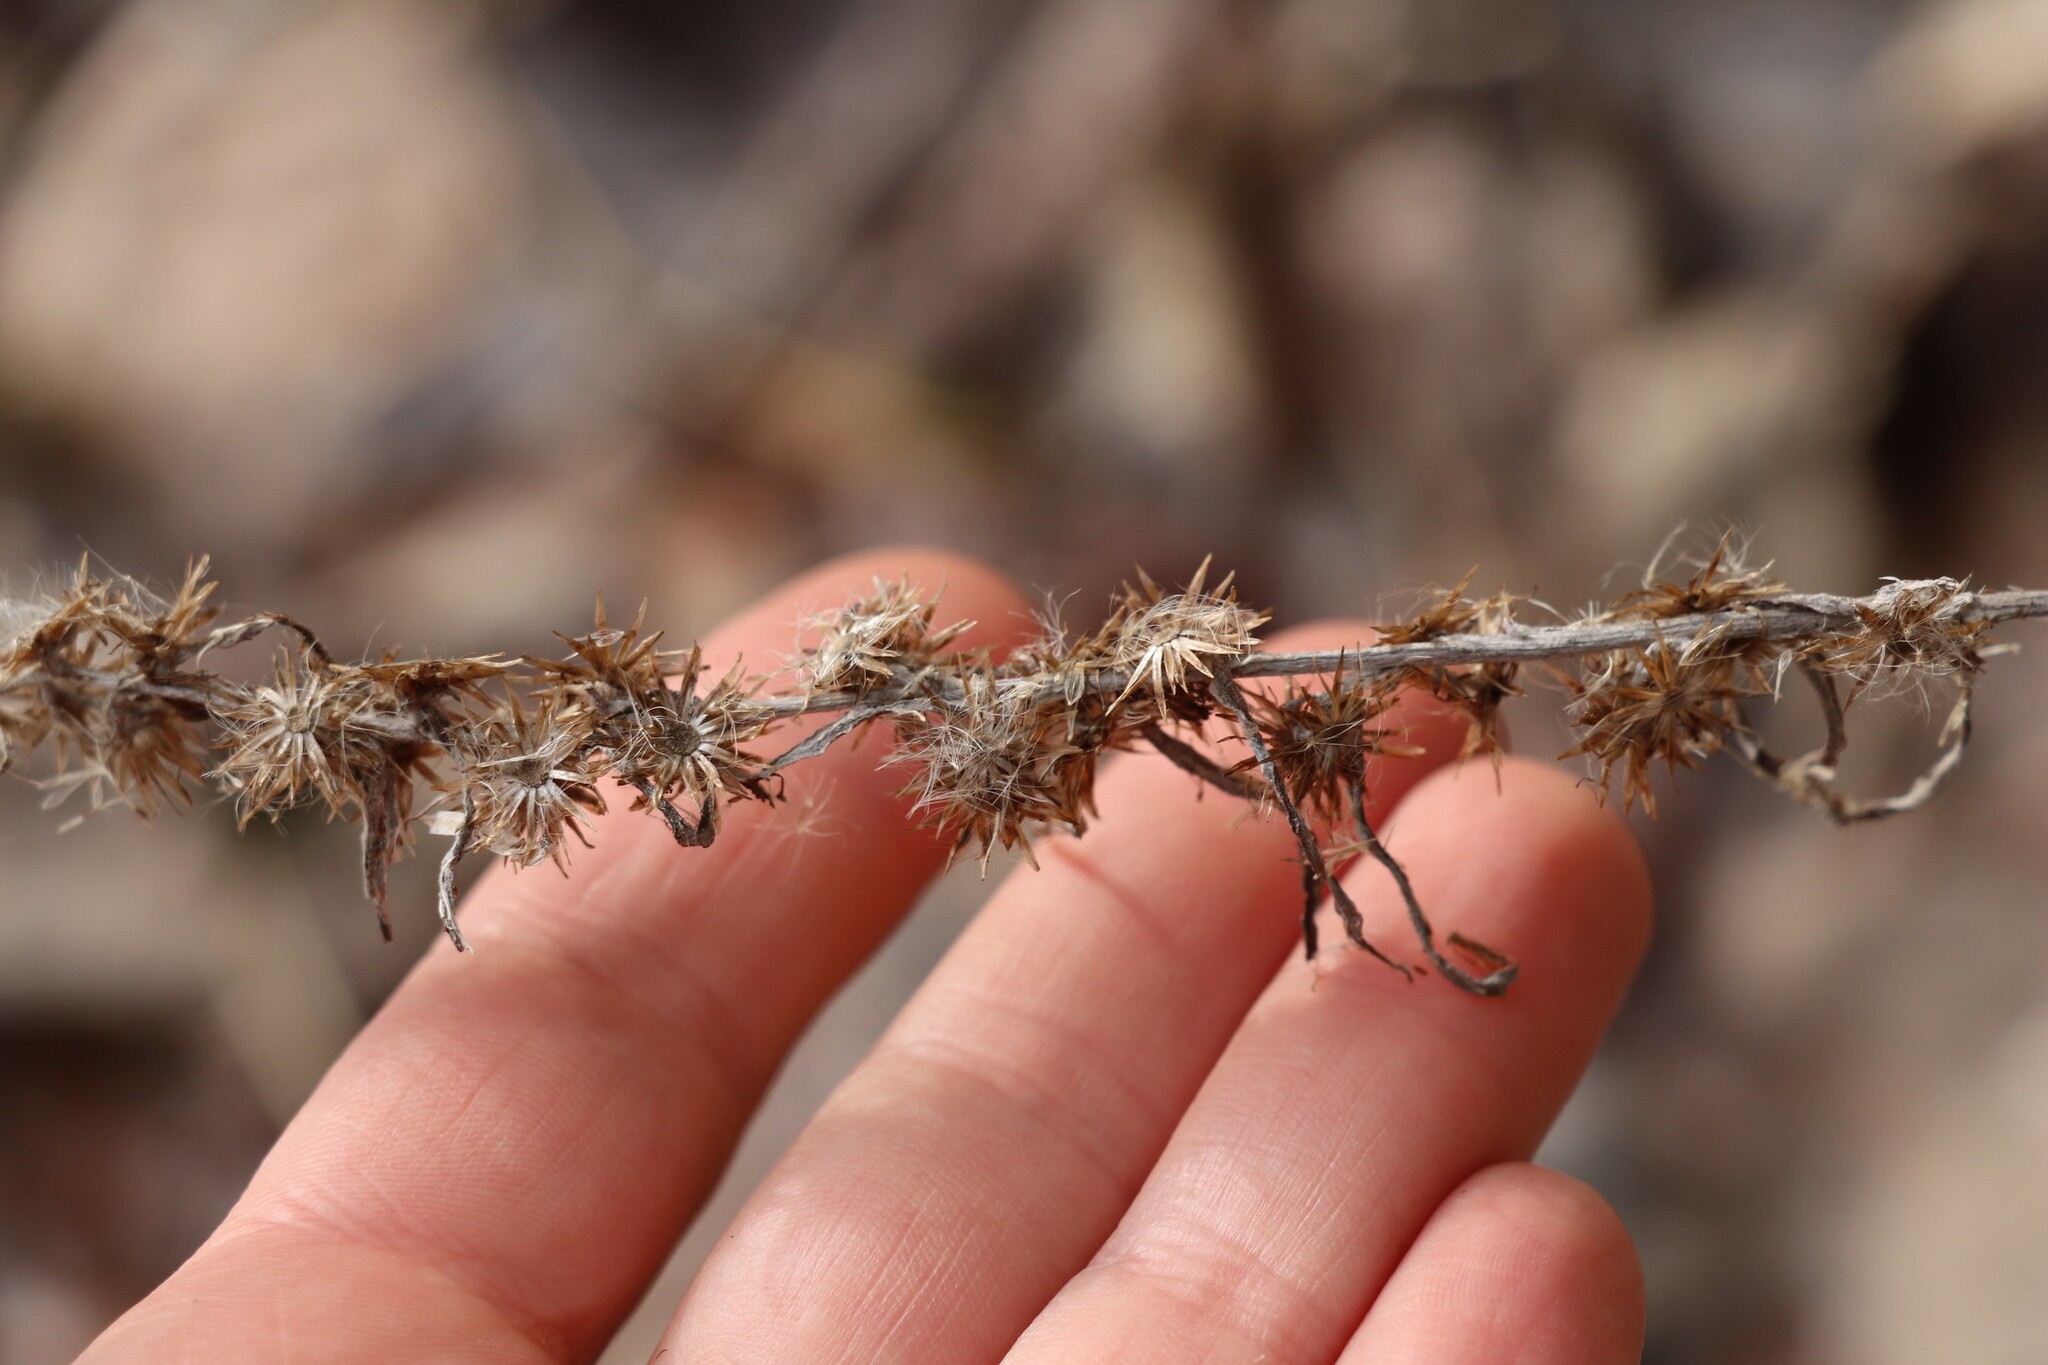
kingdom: Plantae
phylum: Tracheophyta
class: Magnoliopsida
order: Asterales
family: Asteraceae
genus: Omalotheca
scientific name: Omalotheca sylvatica
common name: Heath cudweed
